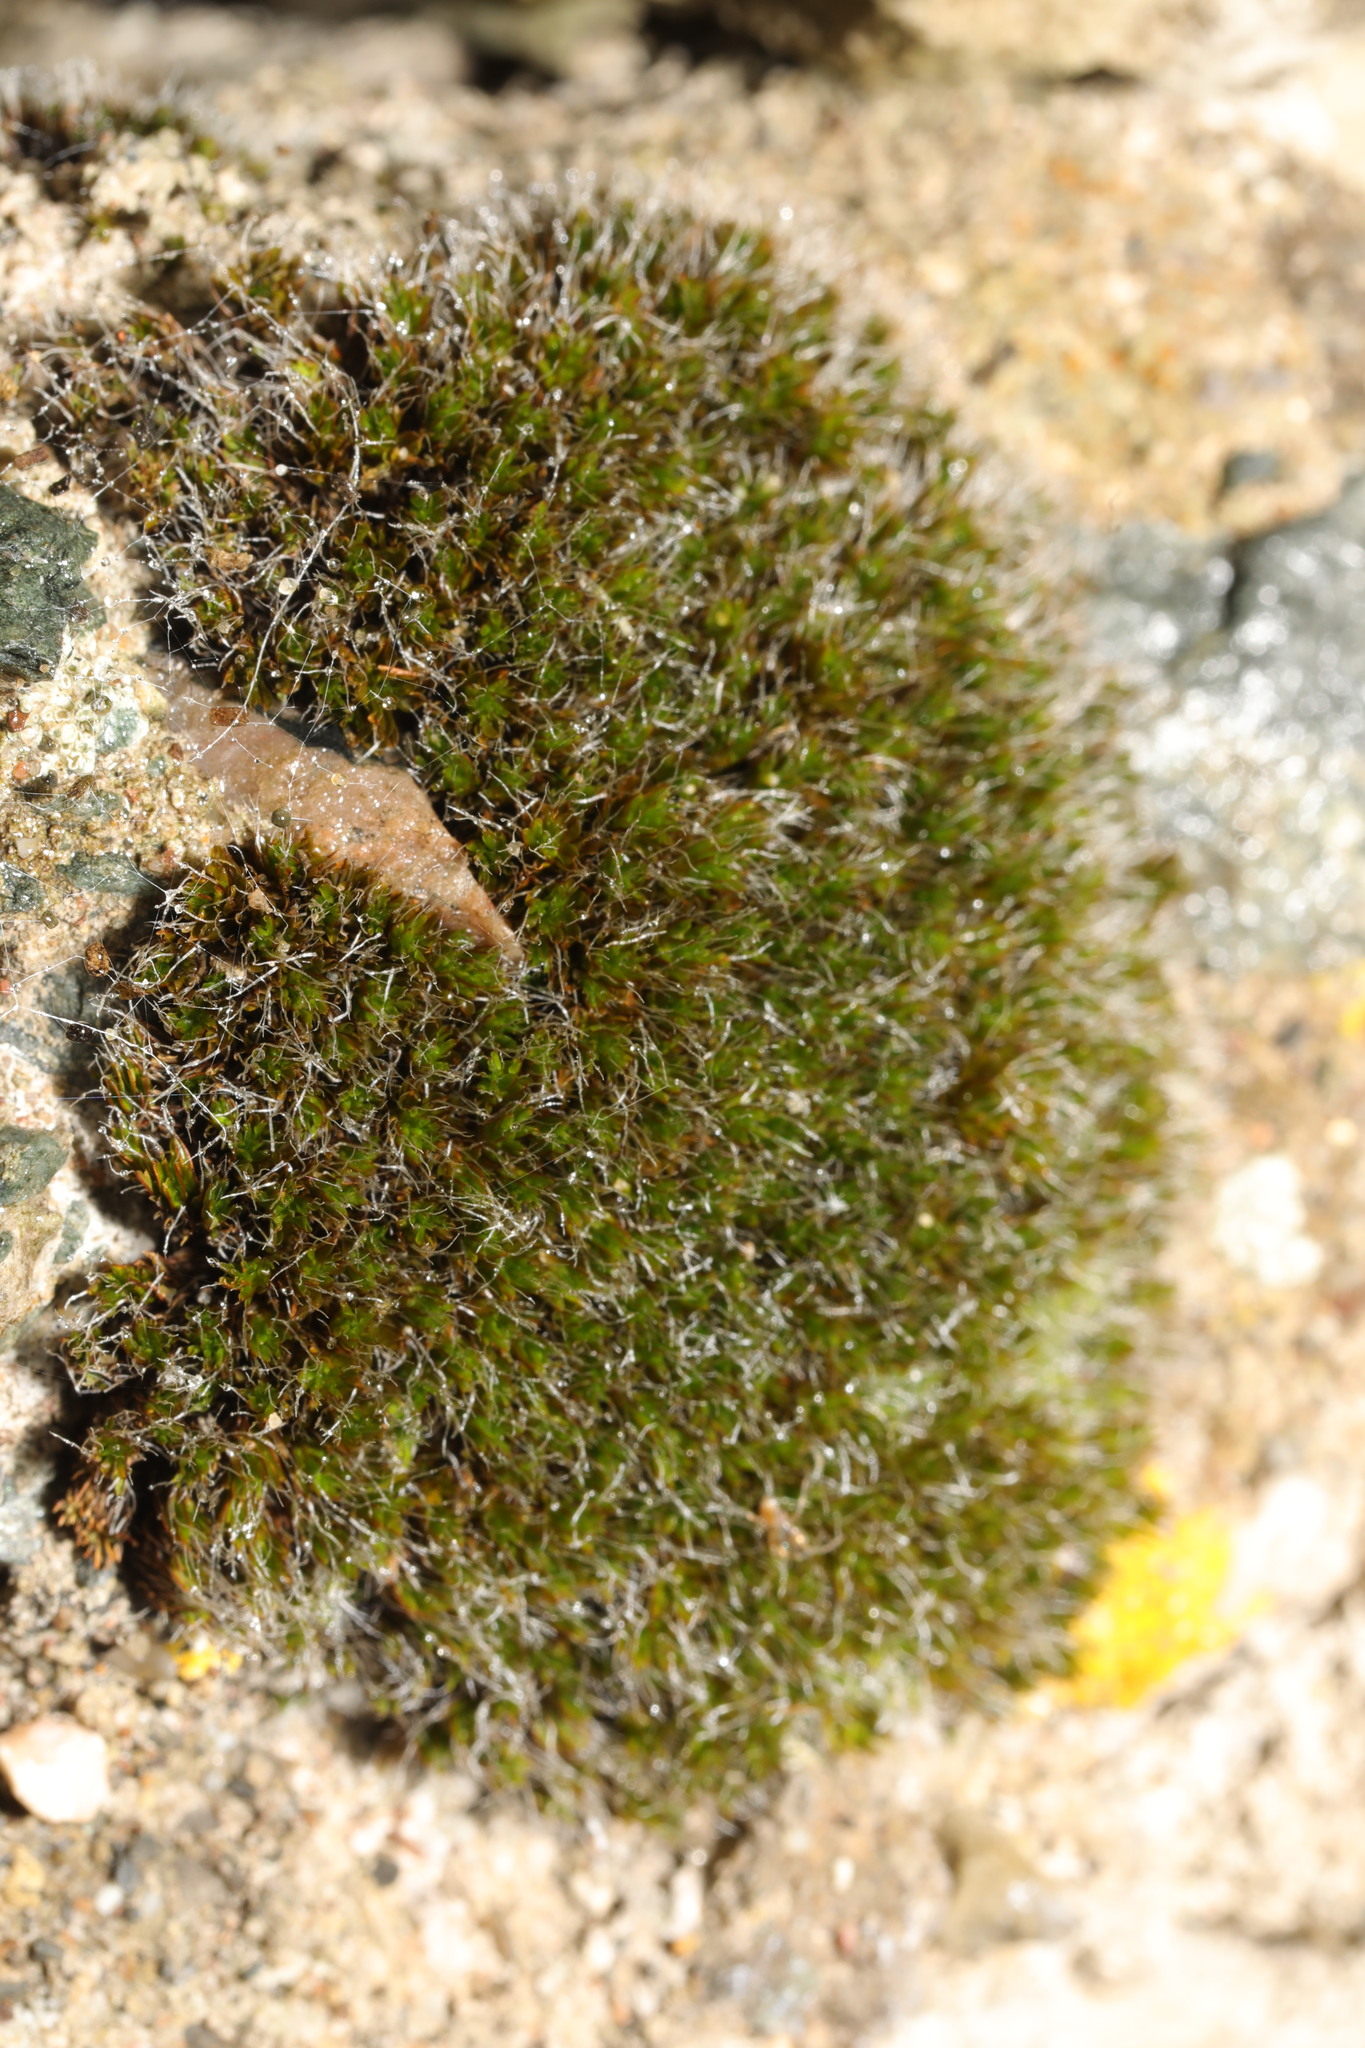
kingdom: Plantae
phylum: Bryophyta
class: Bryopsida
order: Grimmiales
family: Grimmiaceae
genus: Grimmia
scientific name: Grimmia pulvinata
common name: Grey-cushioned grimmia
